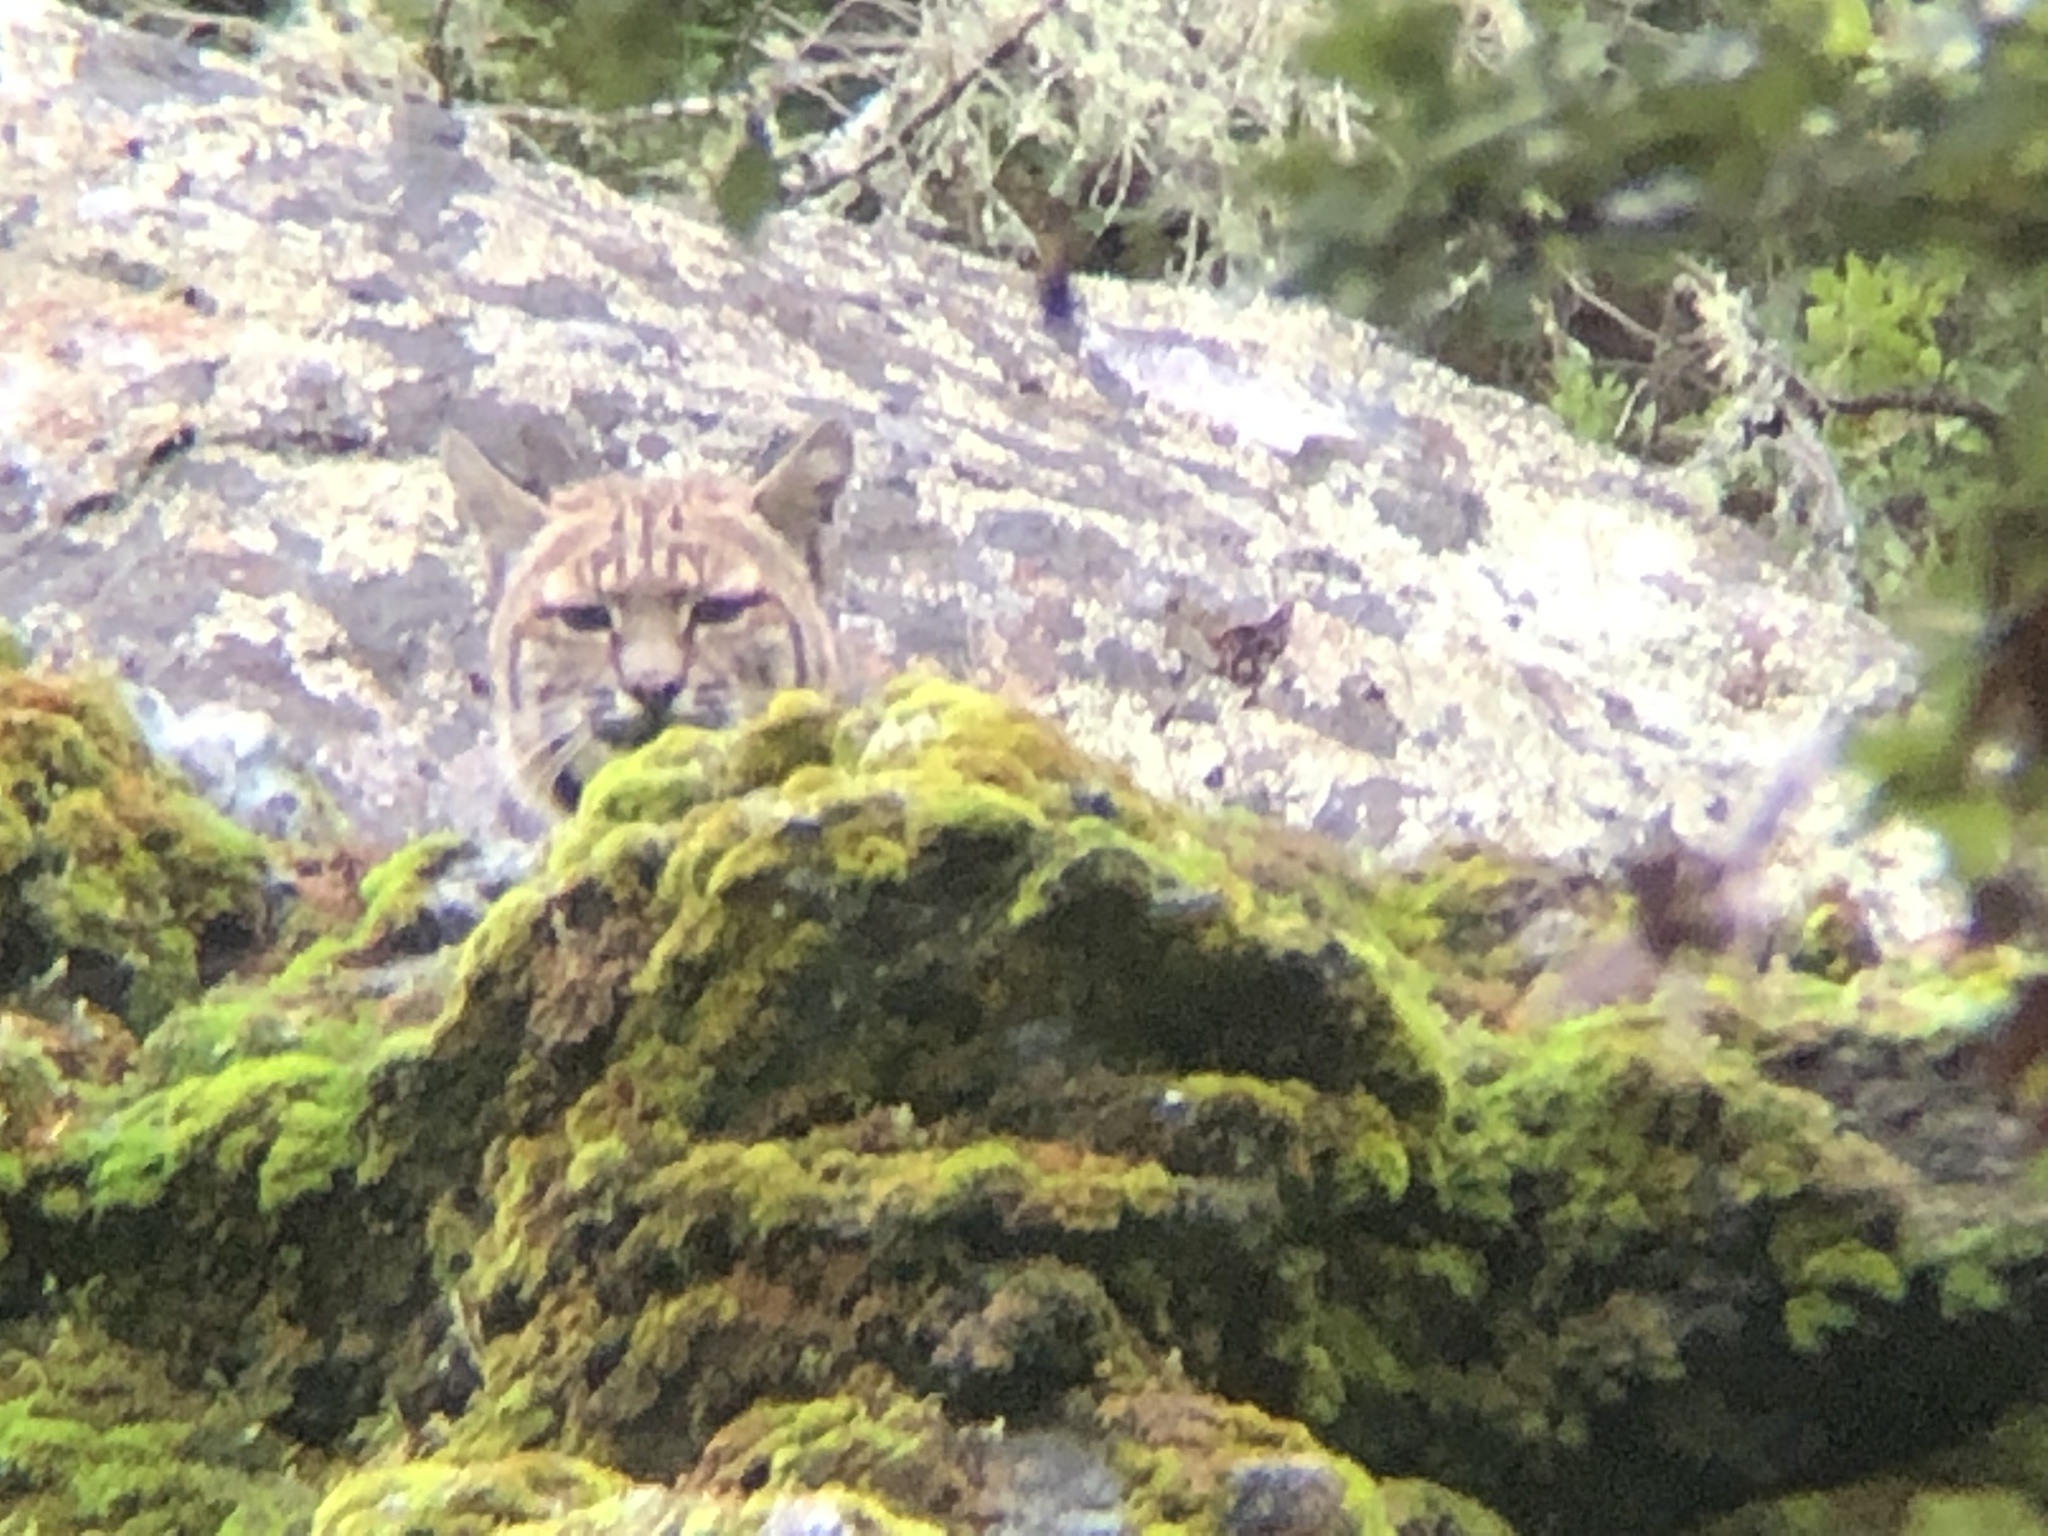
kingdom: Animalia
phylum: Chordata
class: Mammalia
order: Carnivora
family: Felidae
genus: Lynx
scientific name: Lynx rufus
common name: Bobcat
